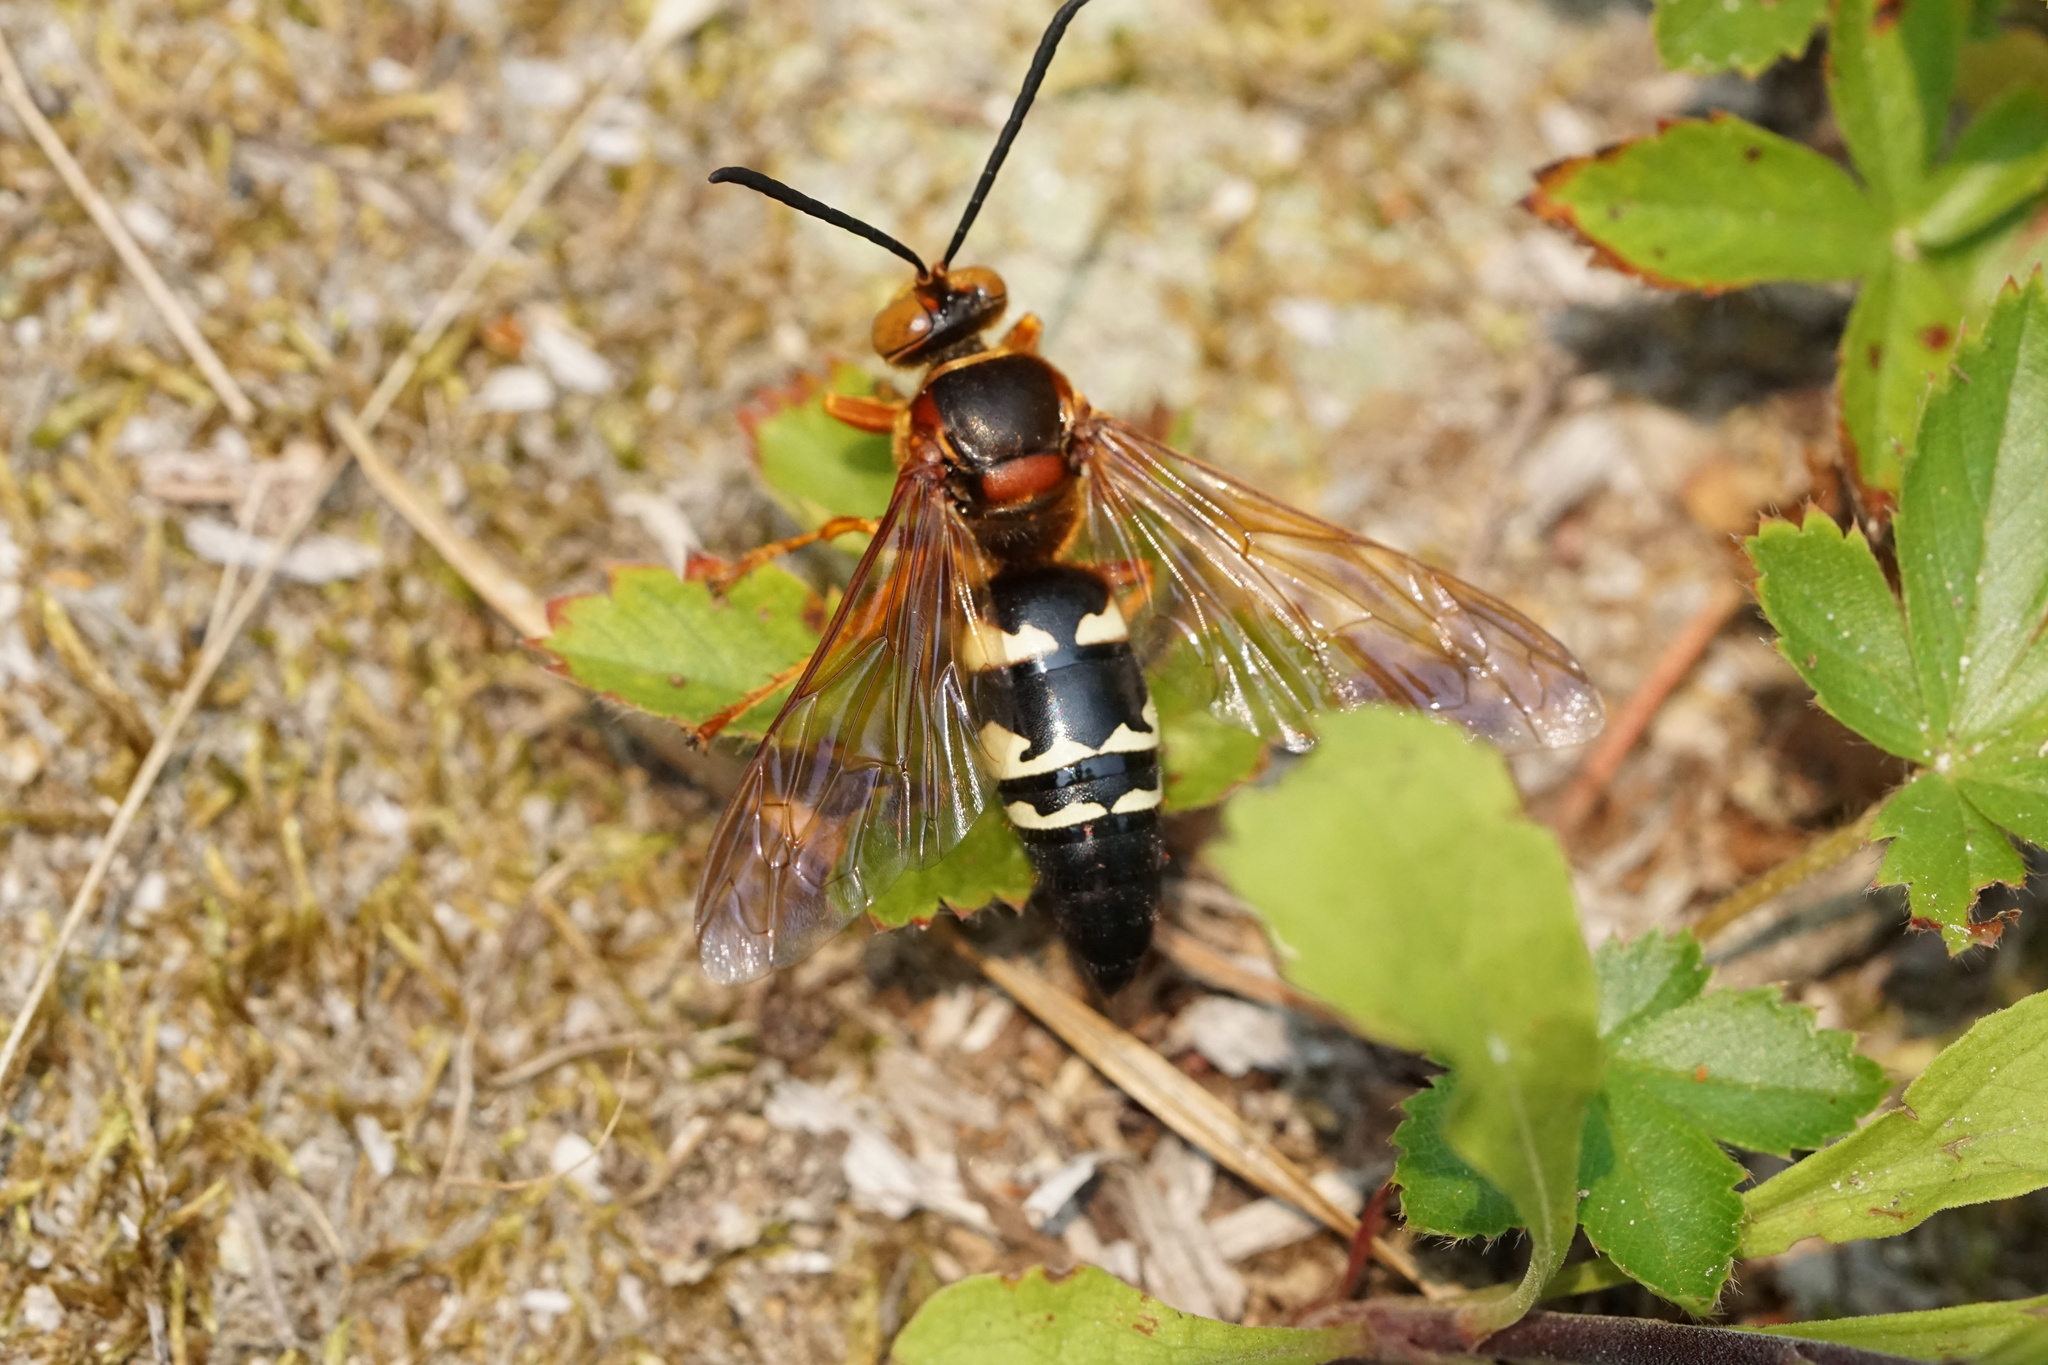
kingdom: Animalia
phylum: Arthropoda
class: Insecta
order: Hymenoptera
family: Crabronidae
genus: Sphecius
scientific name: Sphecius speciosus
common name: Cicada killer
